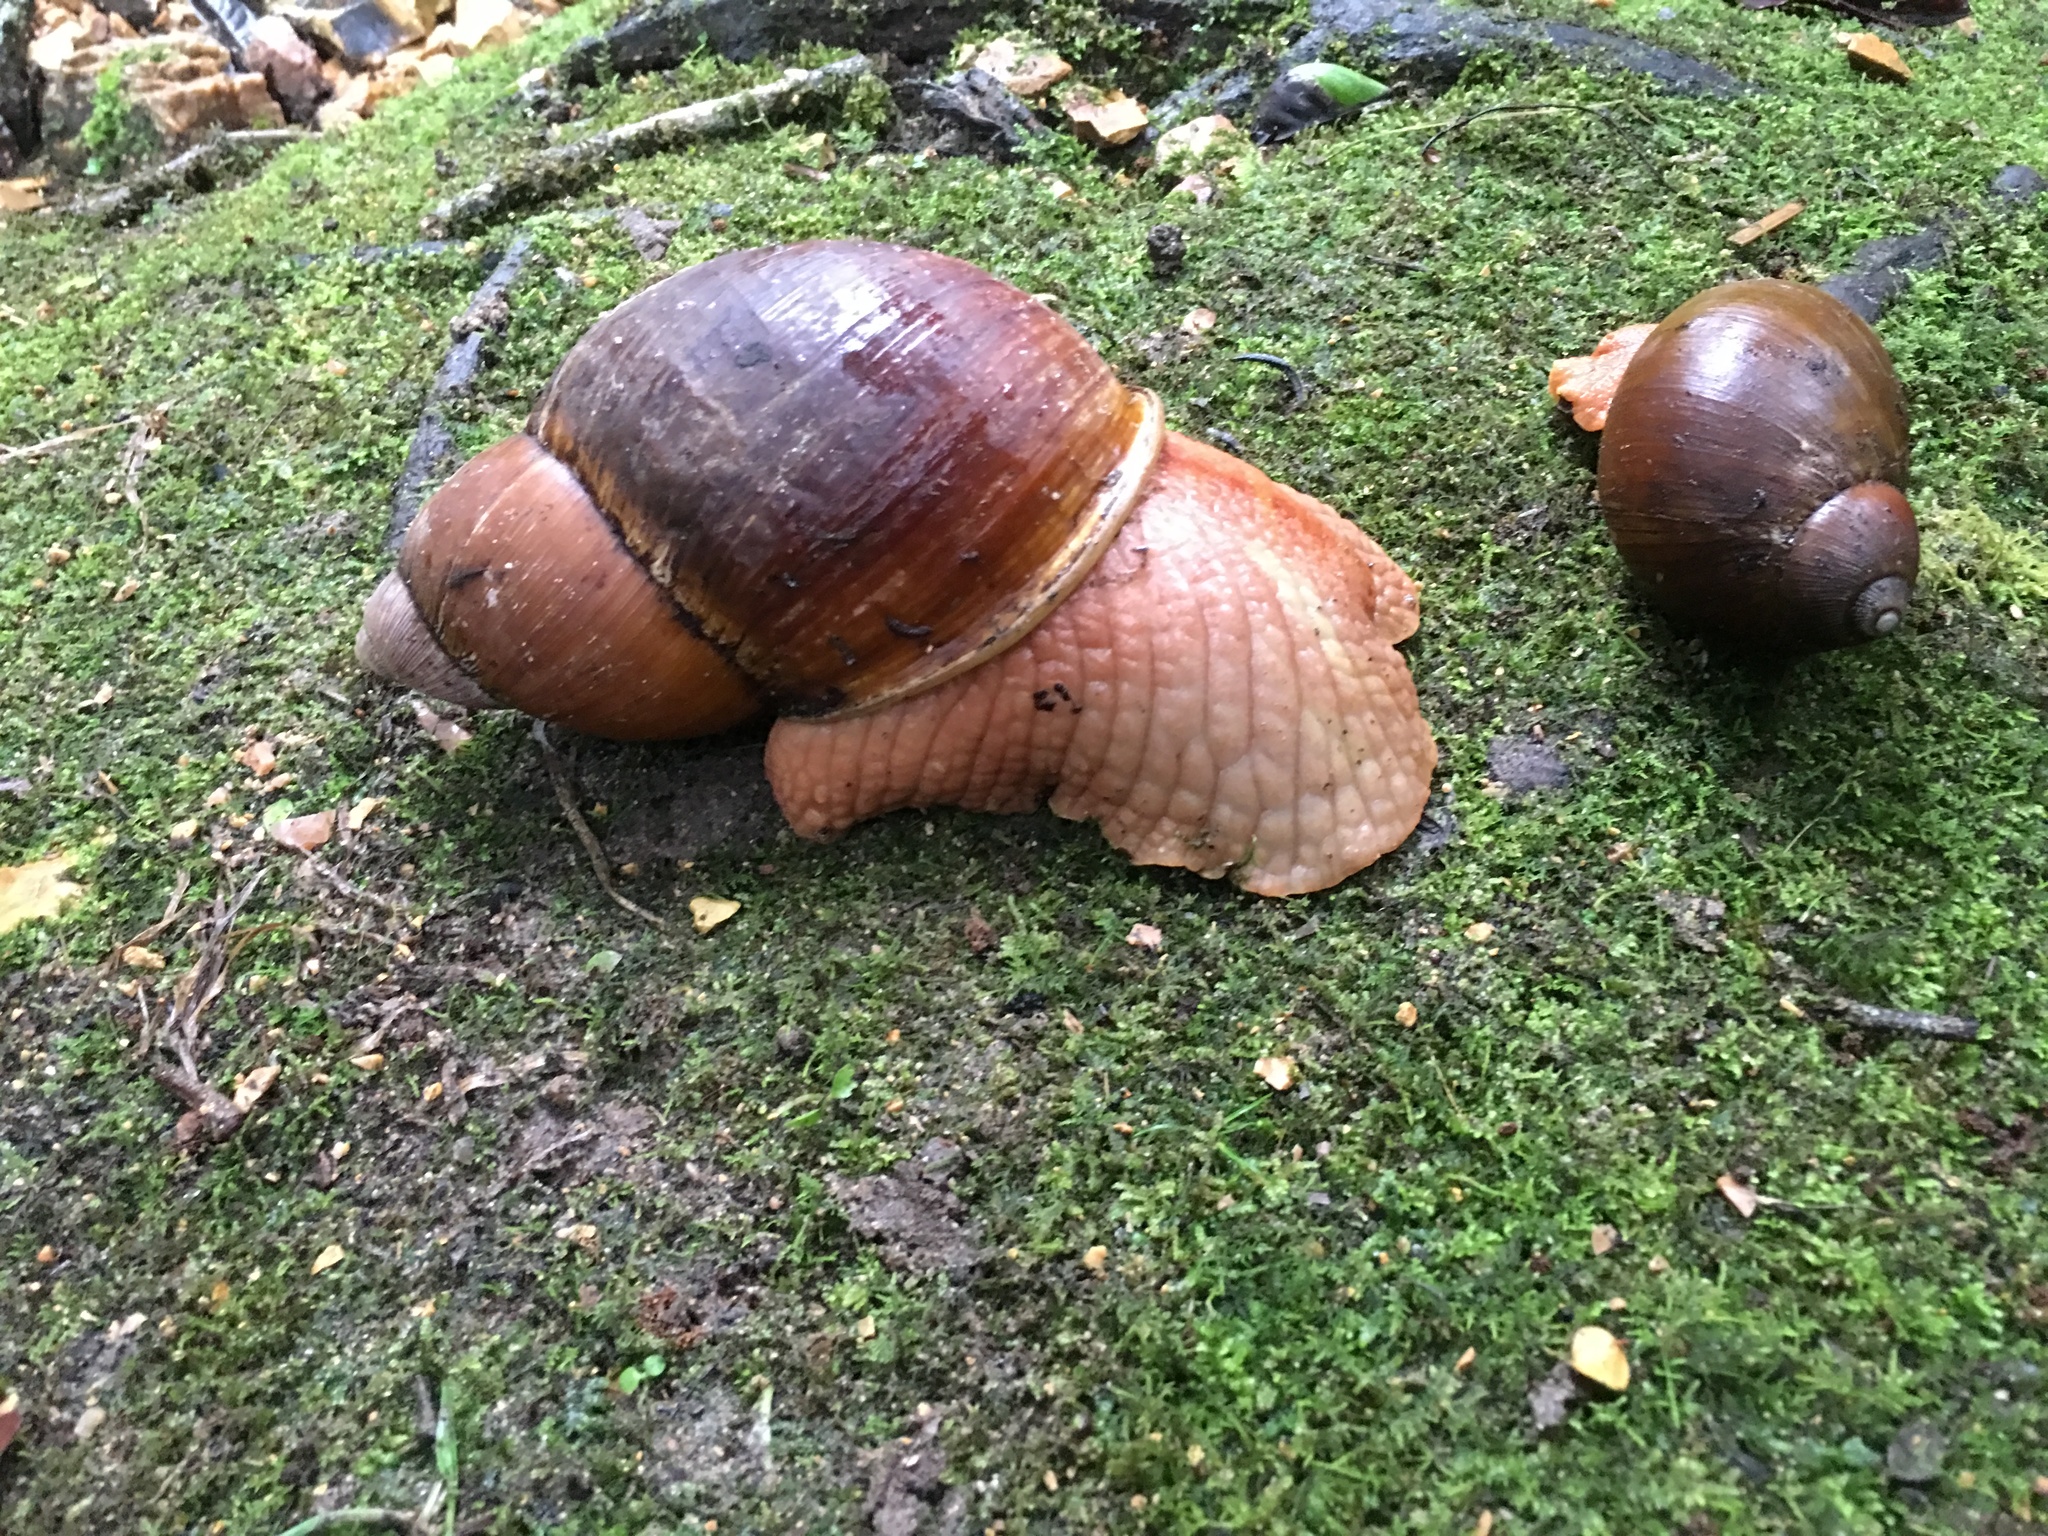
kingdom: Animalia
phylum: Mollusca
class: Gastropoda
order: Stylommatophora
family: Strophocheilidae
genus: Megalobulimus
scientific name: Megalobulimus popelairianus
